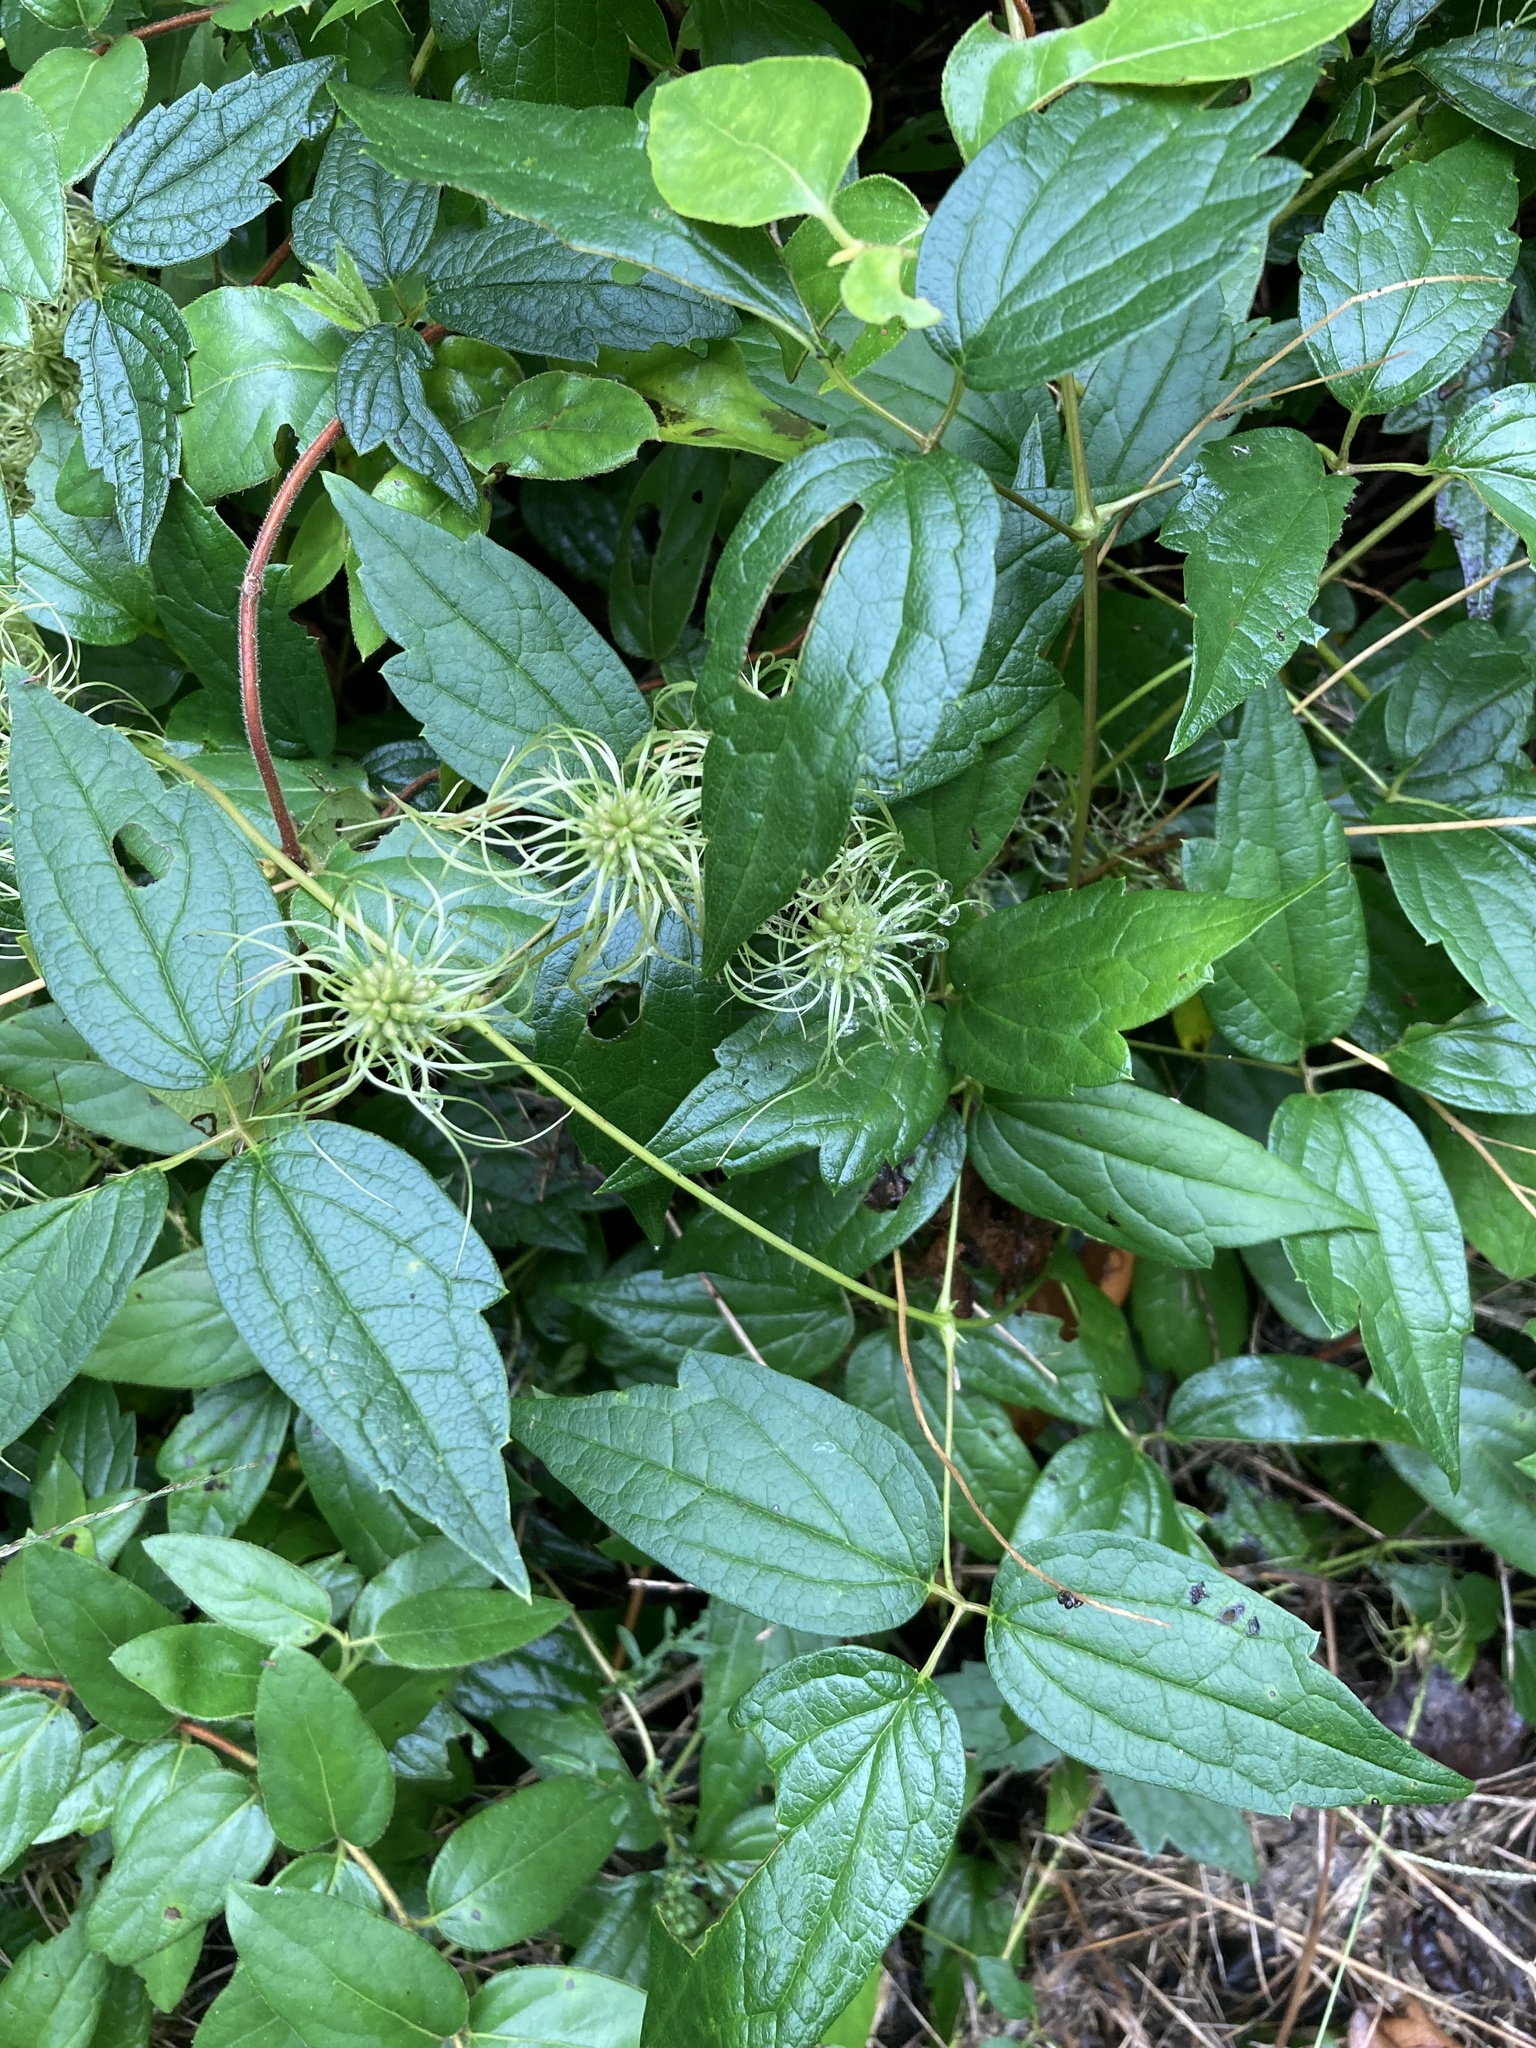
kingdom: Plantae
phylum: Tracheophyta
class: Magnoliopsida
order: Ranunculales
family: Ranunculaceae
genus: Clematis
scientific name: Clematis virginiana
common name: Virgin's-bower
